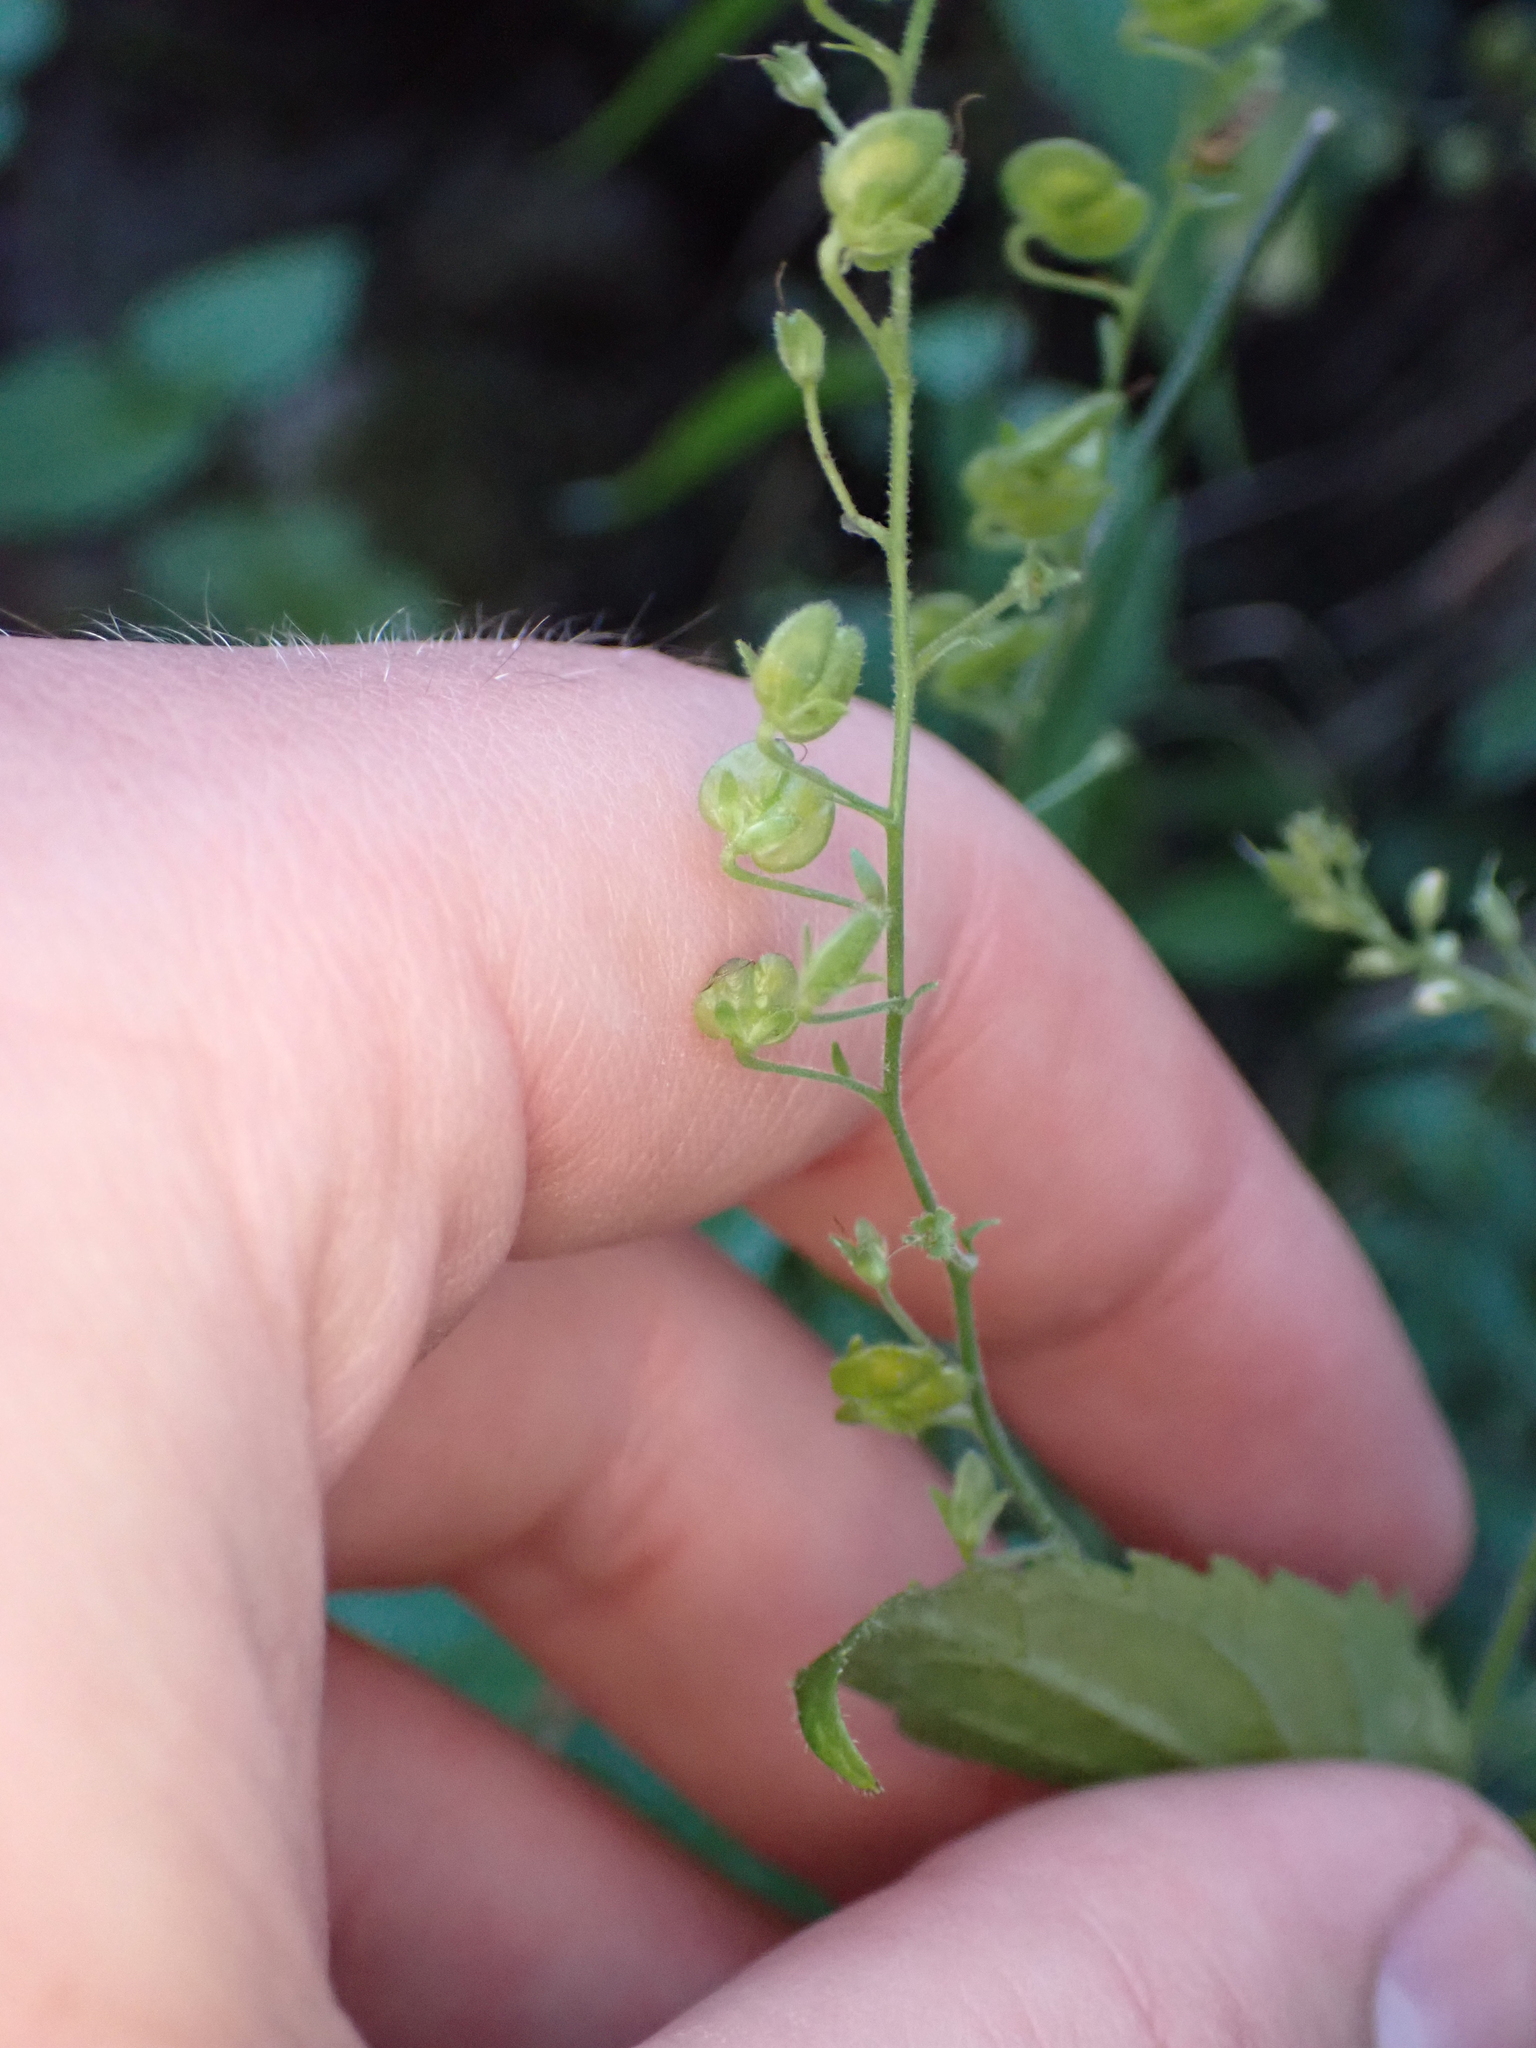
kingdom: Plantae
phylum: Tracheophyta
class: Magnoliopsida
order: Lamiales
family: Plantaginaceae
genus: Veronica
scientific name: Veronica urticifolia
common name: Nettle-leaf speedwell
